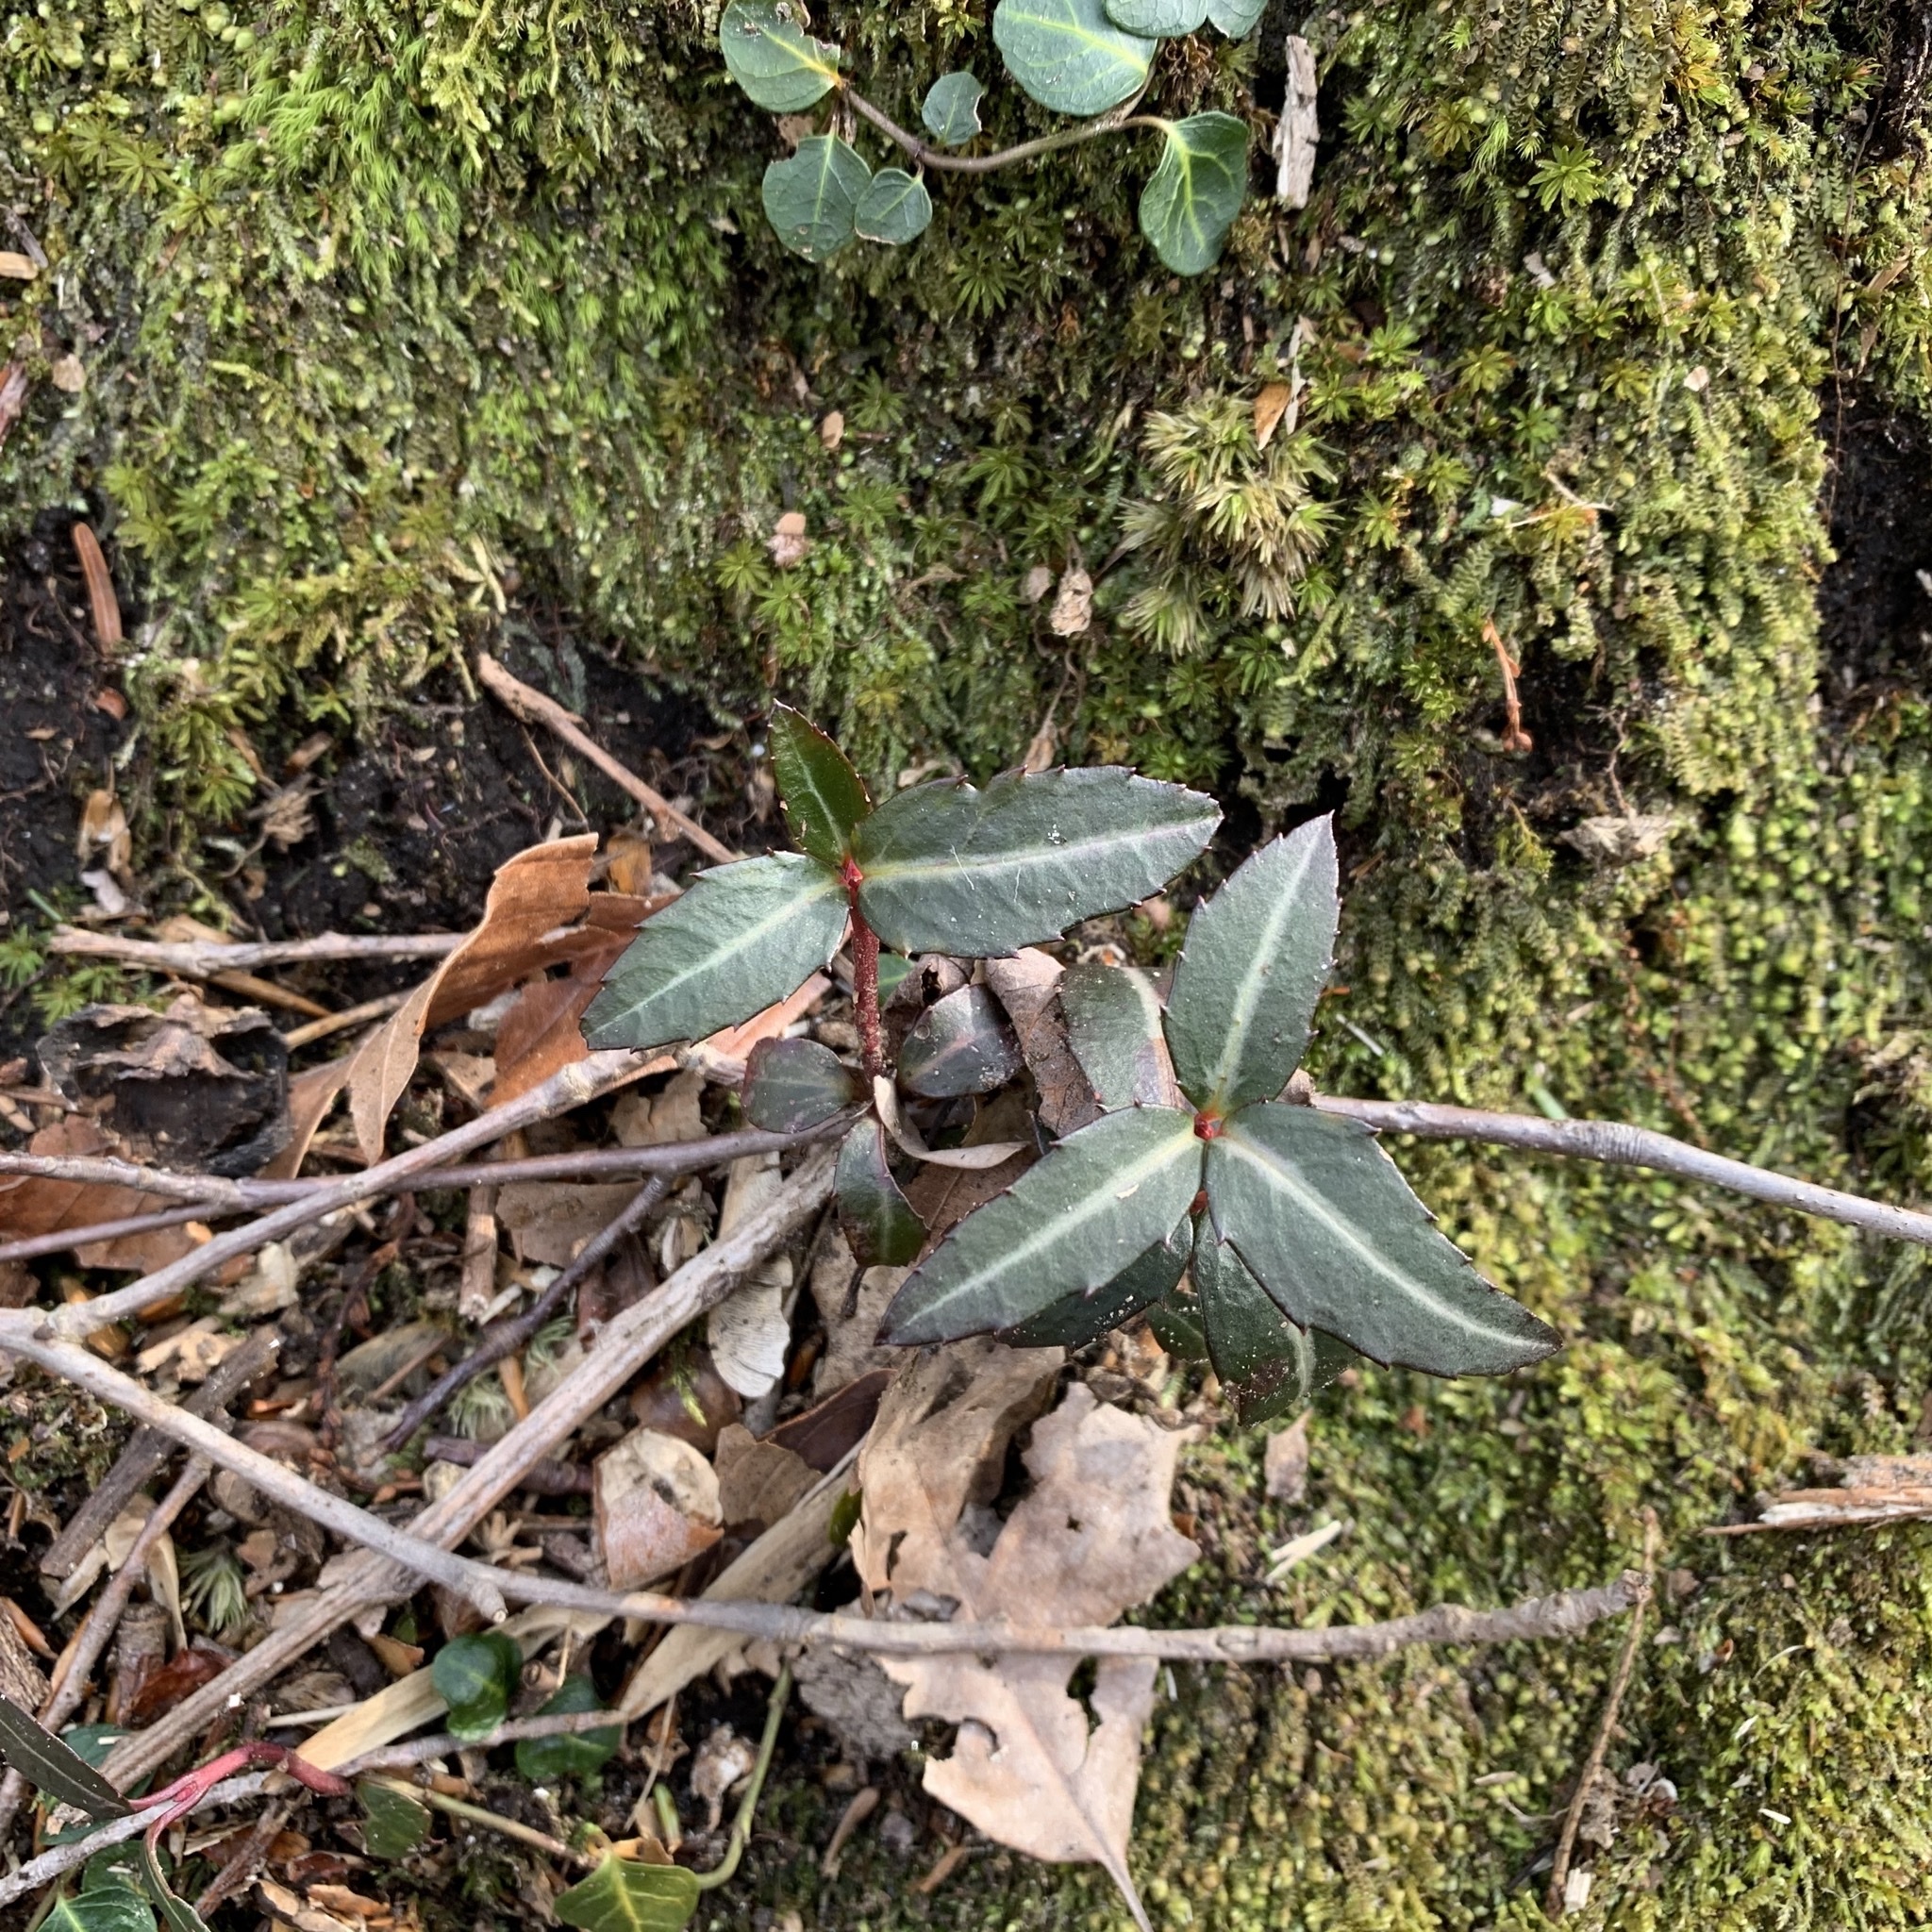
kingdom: Plantae
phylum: Tracheophyta
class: Magnoliopsida
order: Ericales
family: Ericaceae
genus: Chimaphila
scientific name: Chimaphila maculata
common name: Spotted pipsissewa
